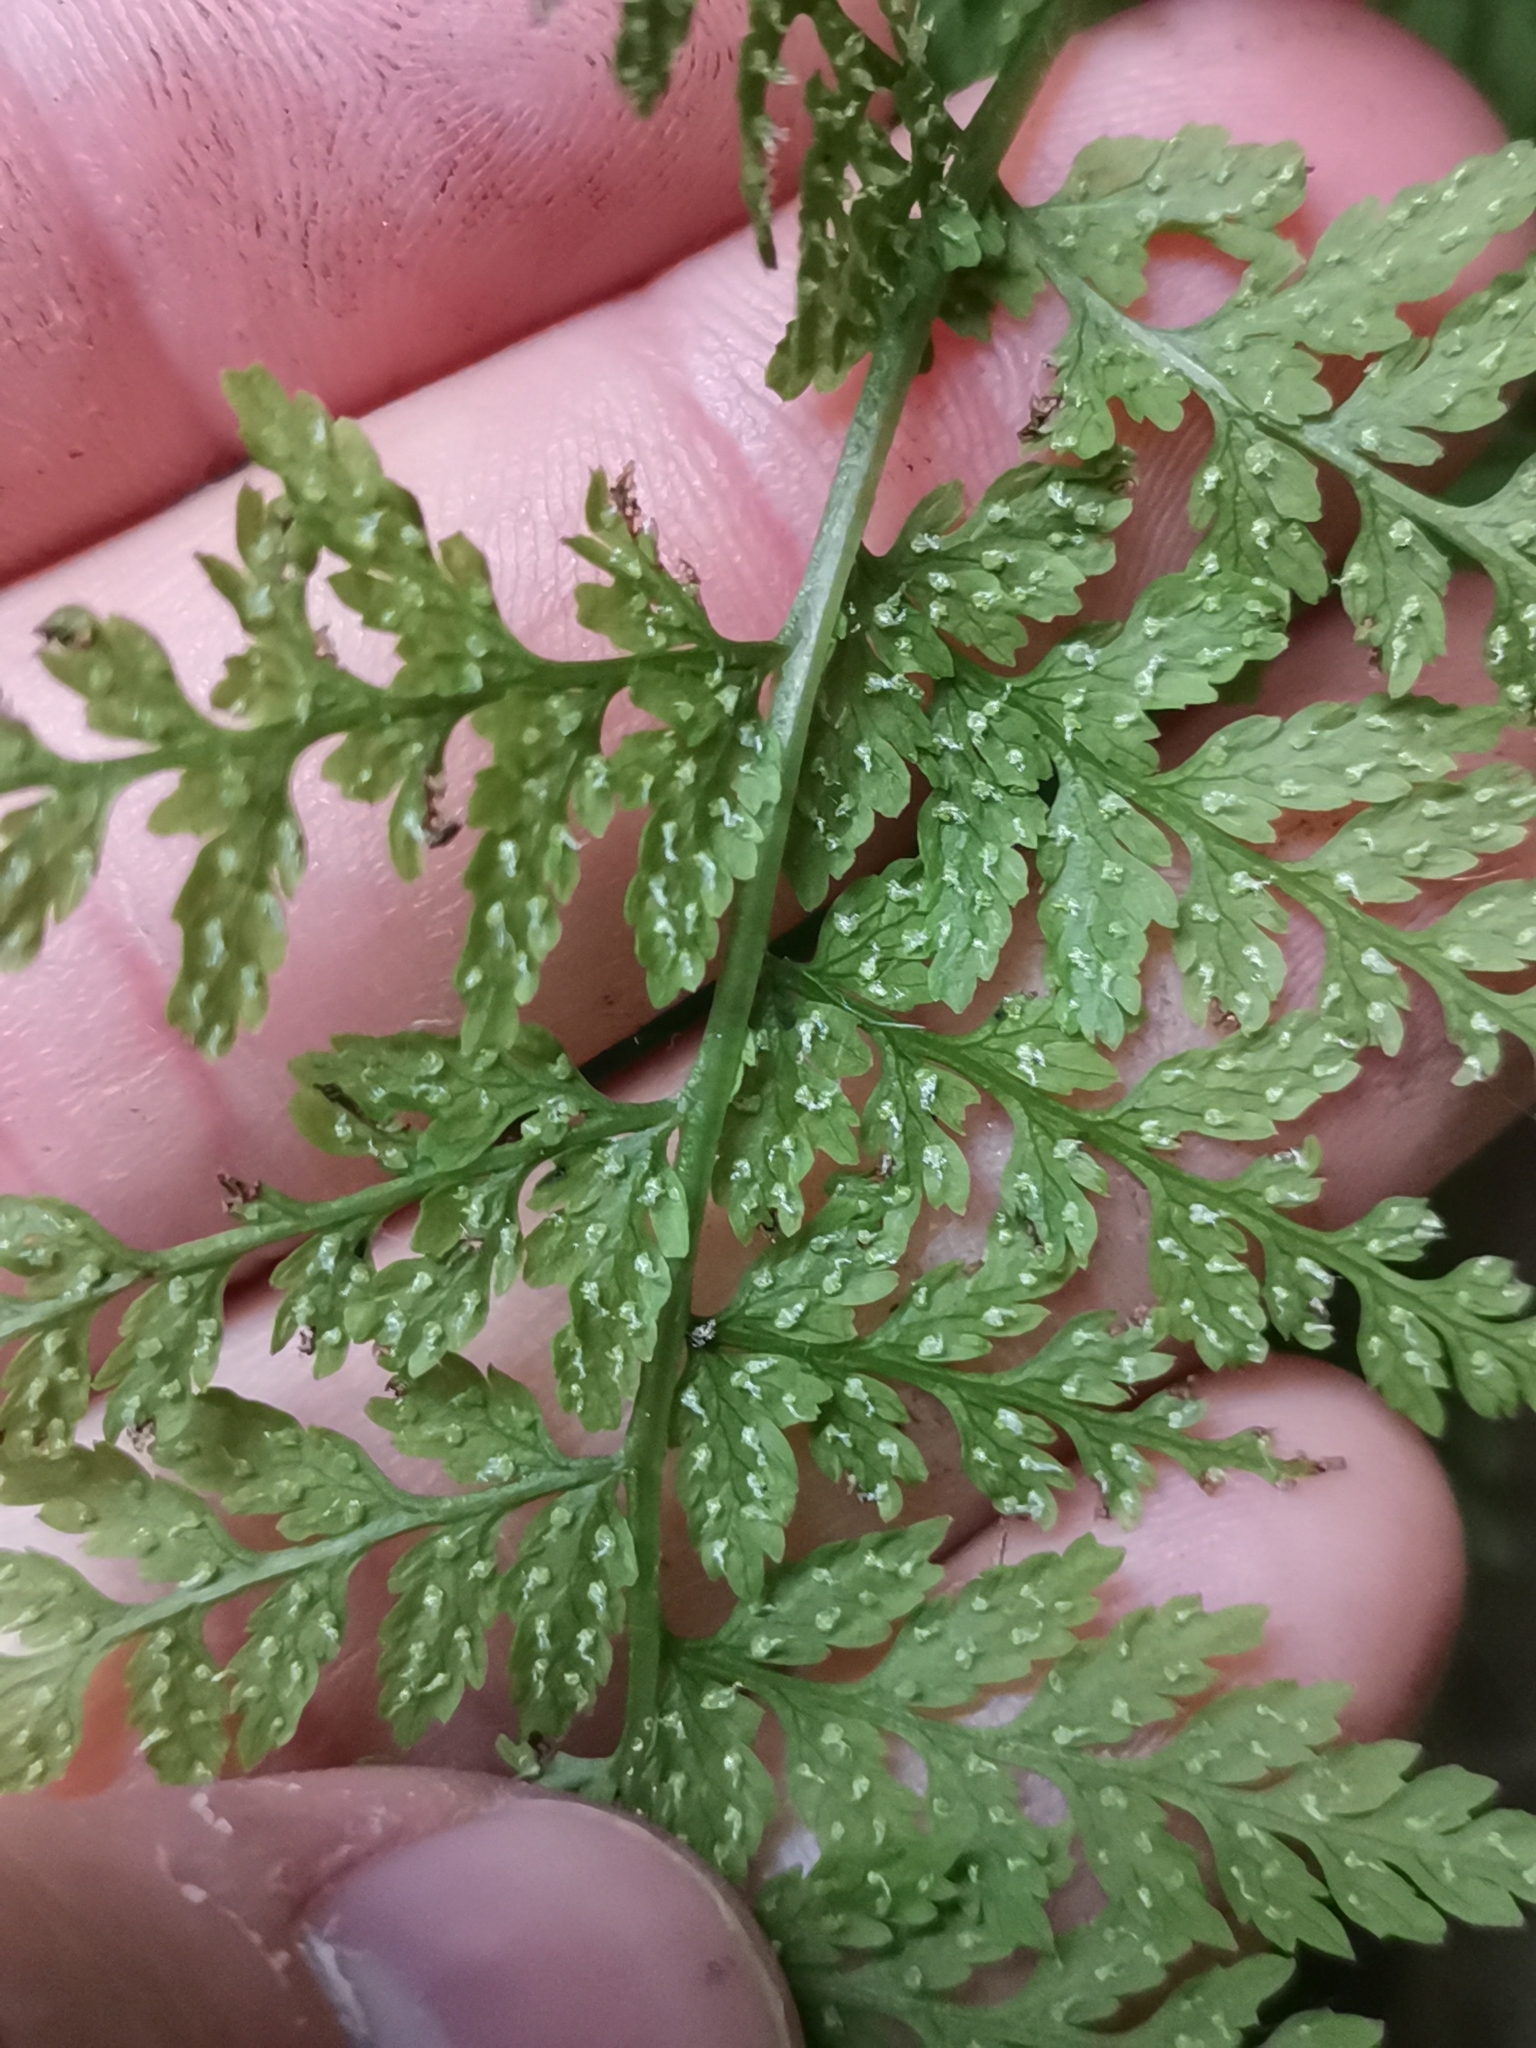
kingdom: Plantae
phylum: Tracheophyta
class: Polypodiopsida
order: Polypodiales
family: Cystopteridaceae
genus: Cystopteris
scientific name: Cystopteris fragilis
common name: Brittle bladder fern
